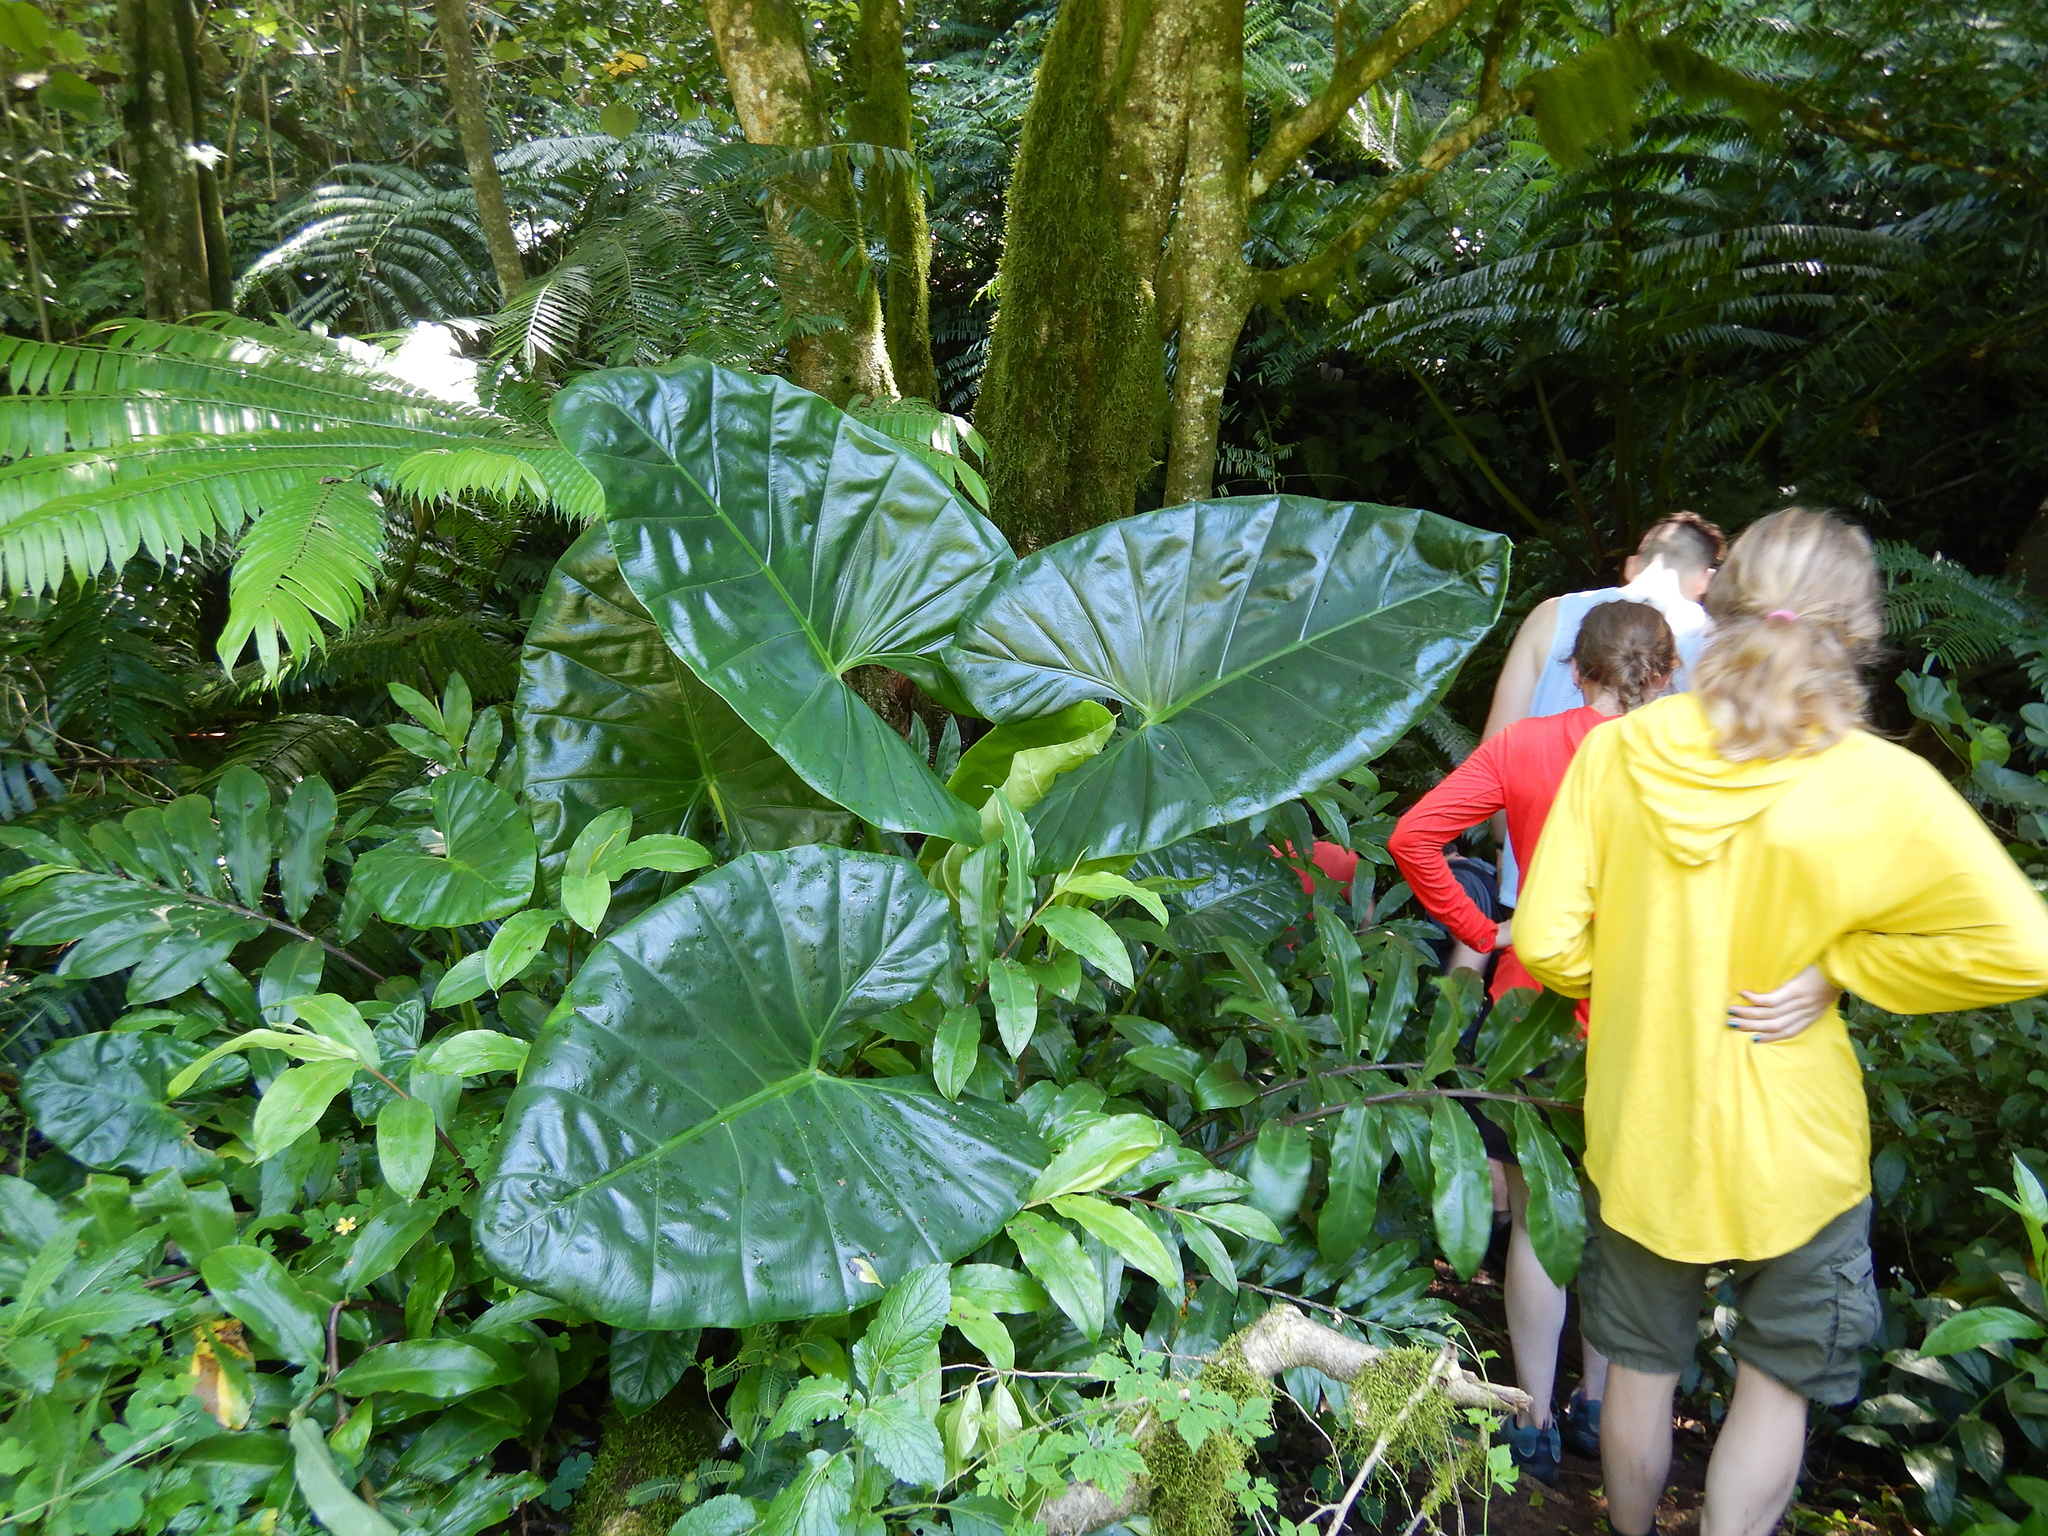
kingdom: Plantae
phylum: Tracheophyta
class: Liliopsida
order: Alismatales
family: Araceae
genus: Alocasia
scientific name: Alocasia macrorrhizos
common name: Giant taro
